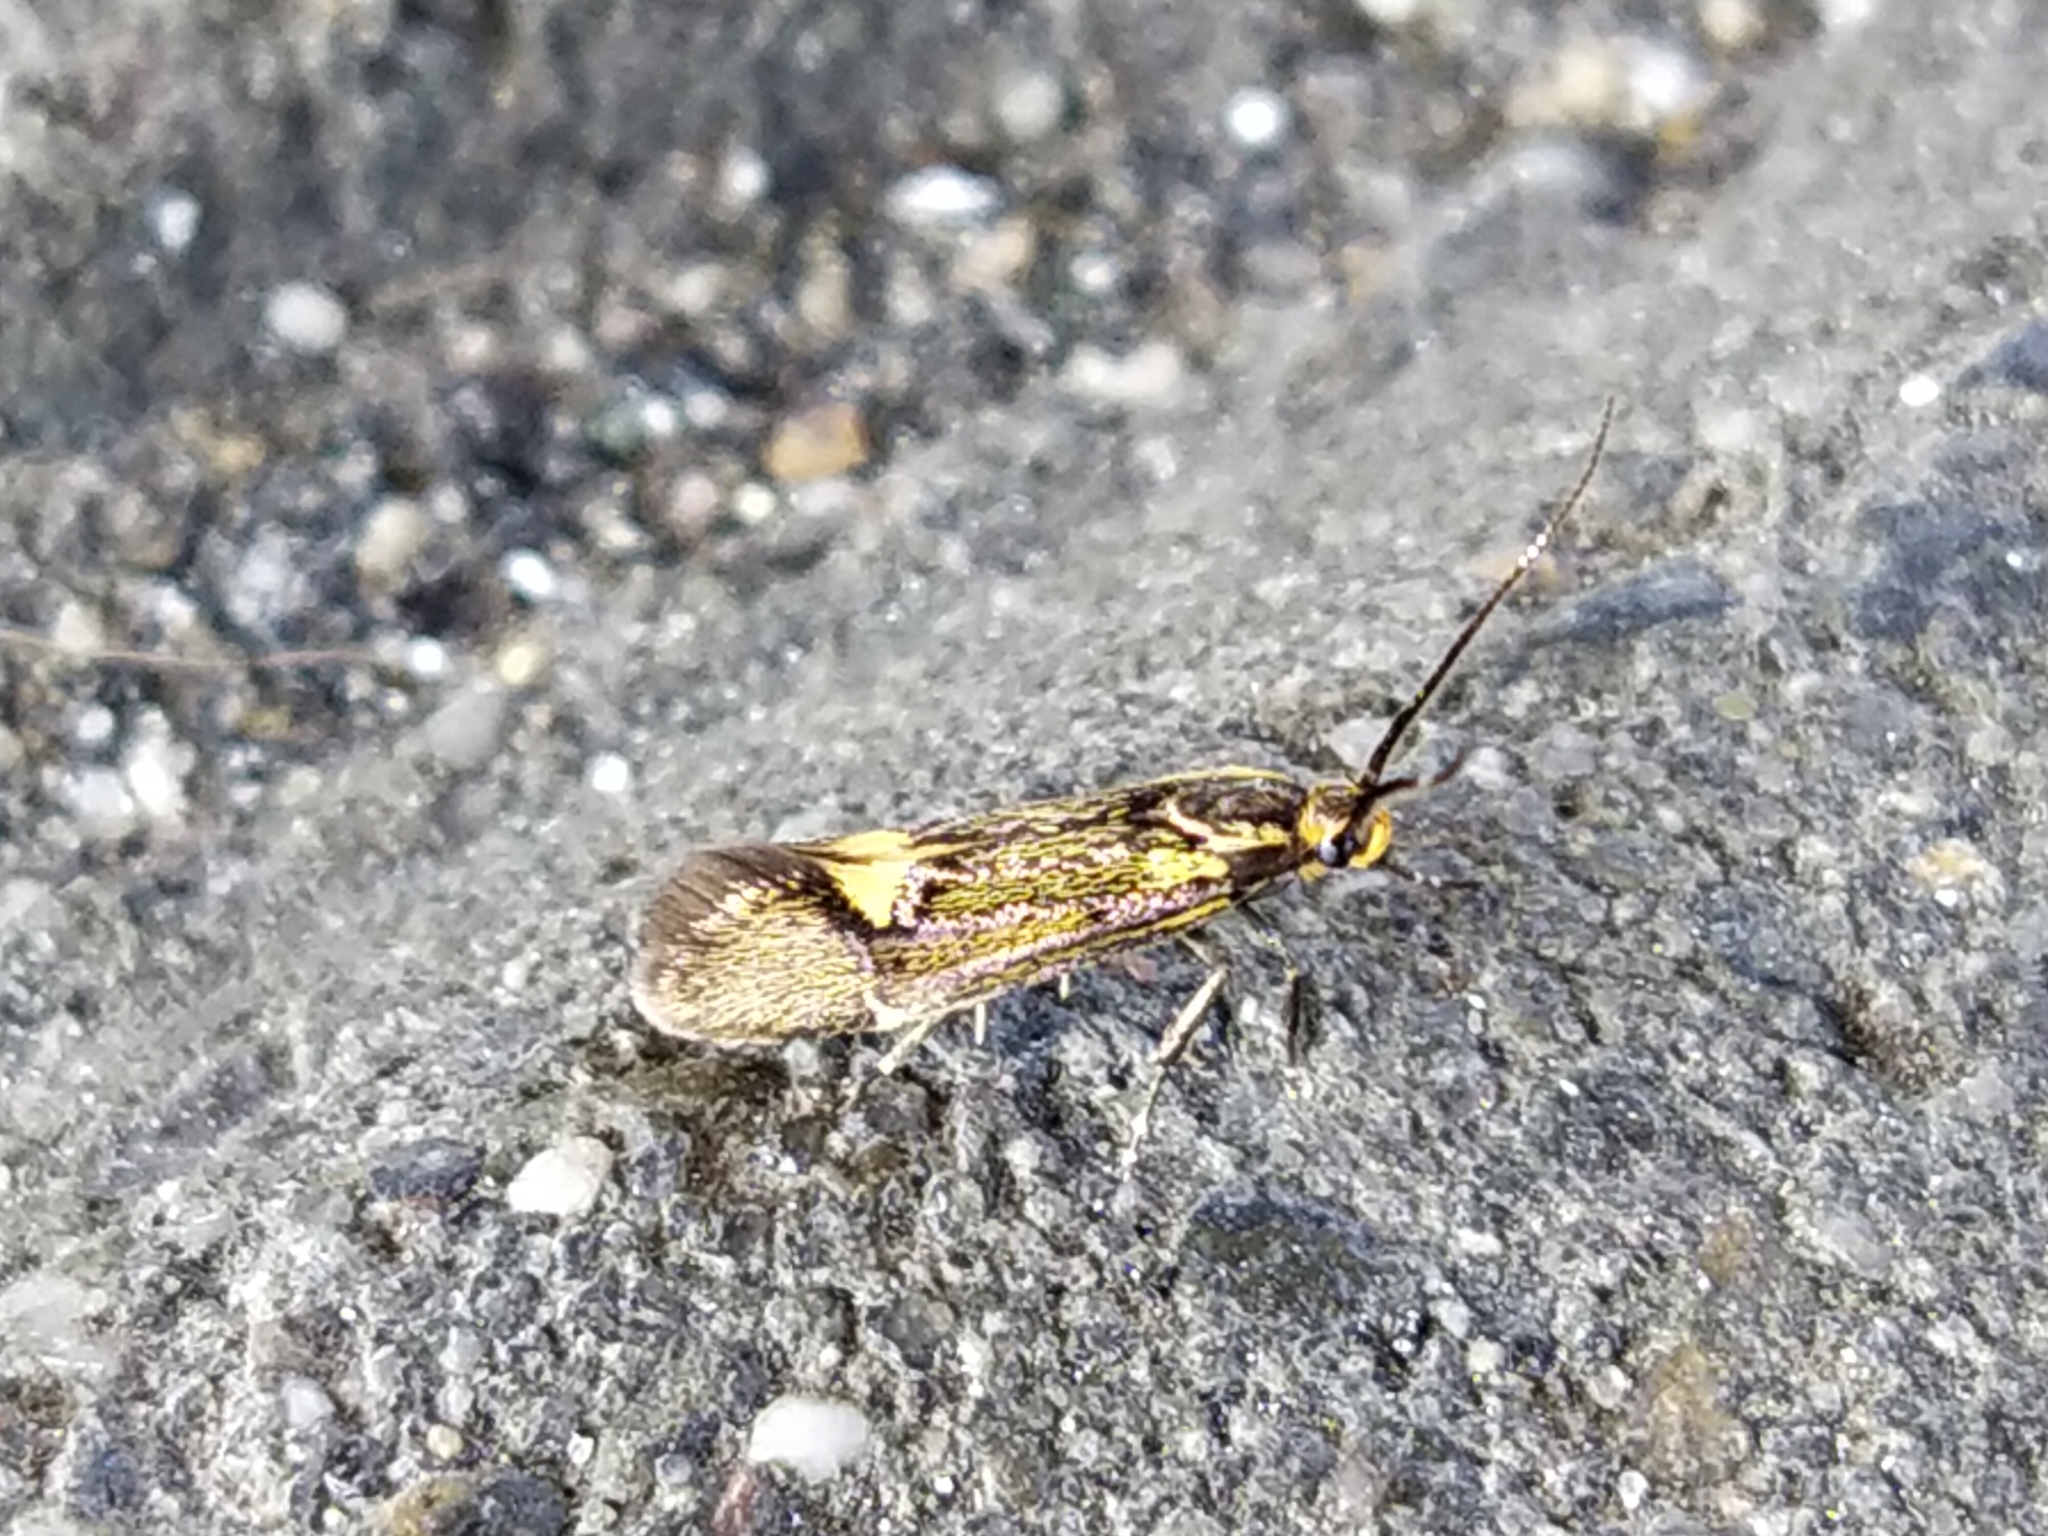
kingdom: Animalia
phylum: Arthropoda
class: Insecta
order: Lepidoptera
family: Oecophoridae
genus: Dafa
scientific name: Dafa Esperia sulphurella
